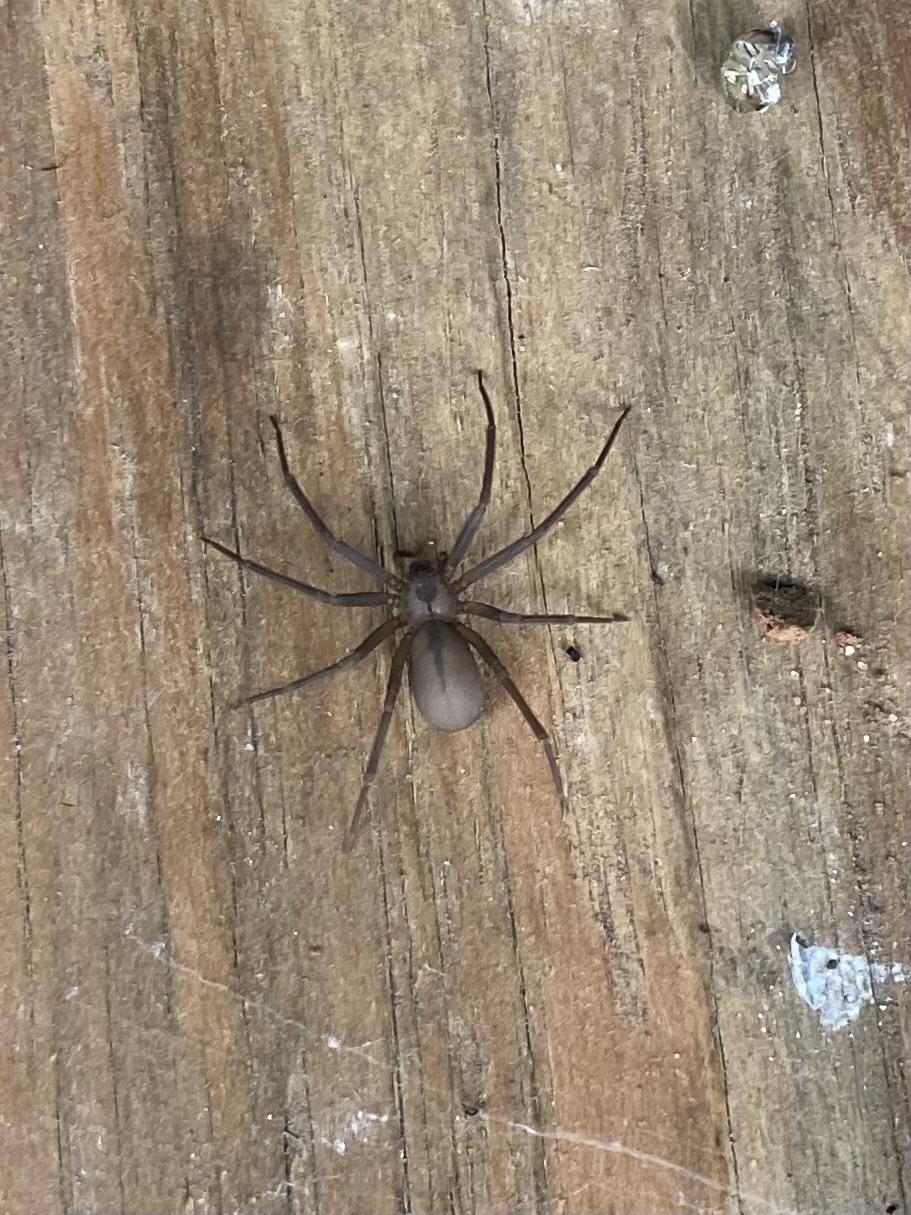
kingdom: Animalia
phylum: Arthropoda
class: Arachnida
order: Araneae
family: Sicariidae
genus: Loxosceles
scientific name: Loxosceles reclusa
